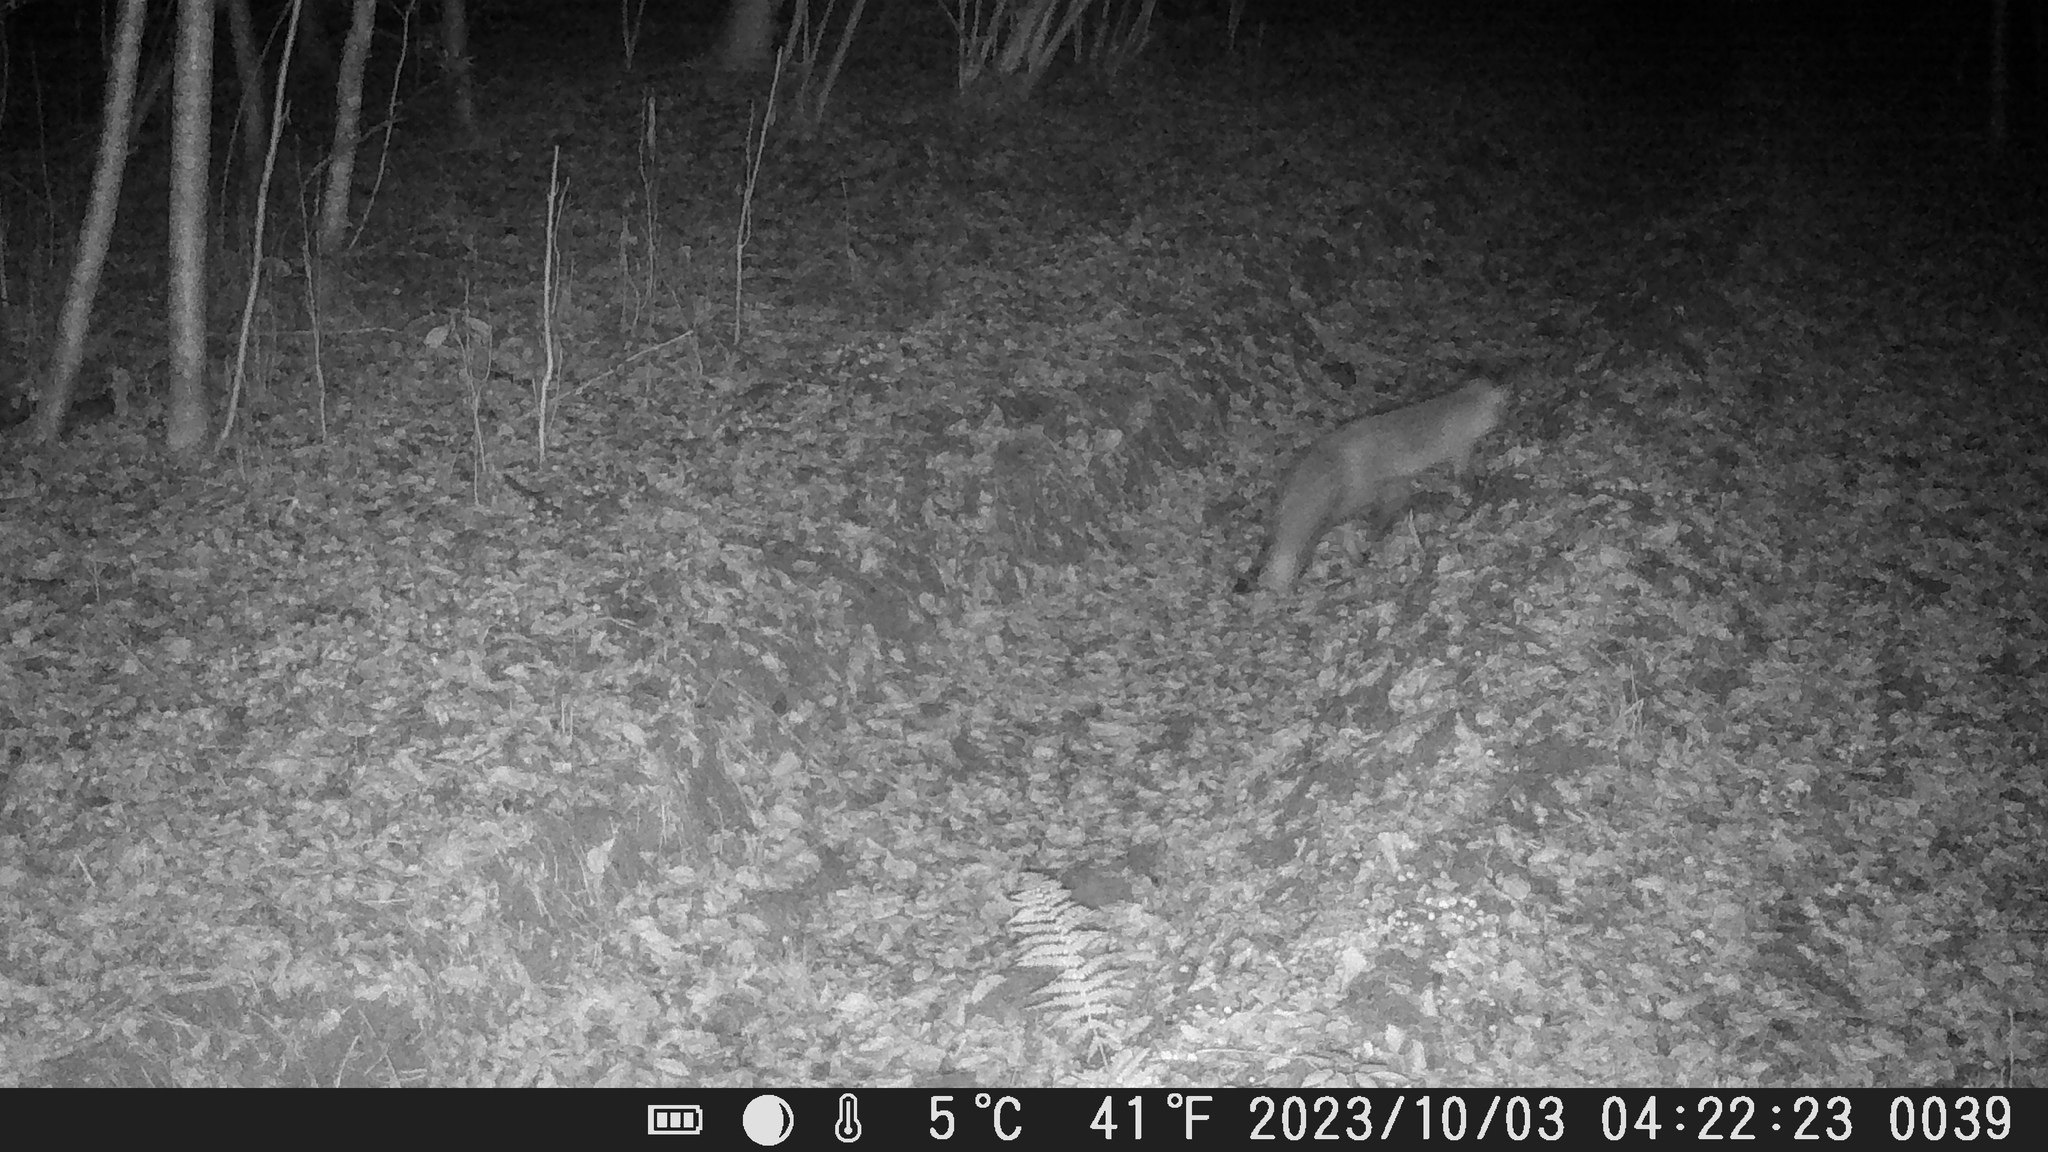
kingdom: Animalia
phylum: Chordata
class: Mammalia
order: Carnivora
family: Canidae
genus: Vulpes
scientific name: Vulpes vulpes
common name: Red fox
